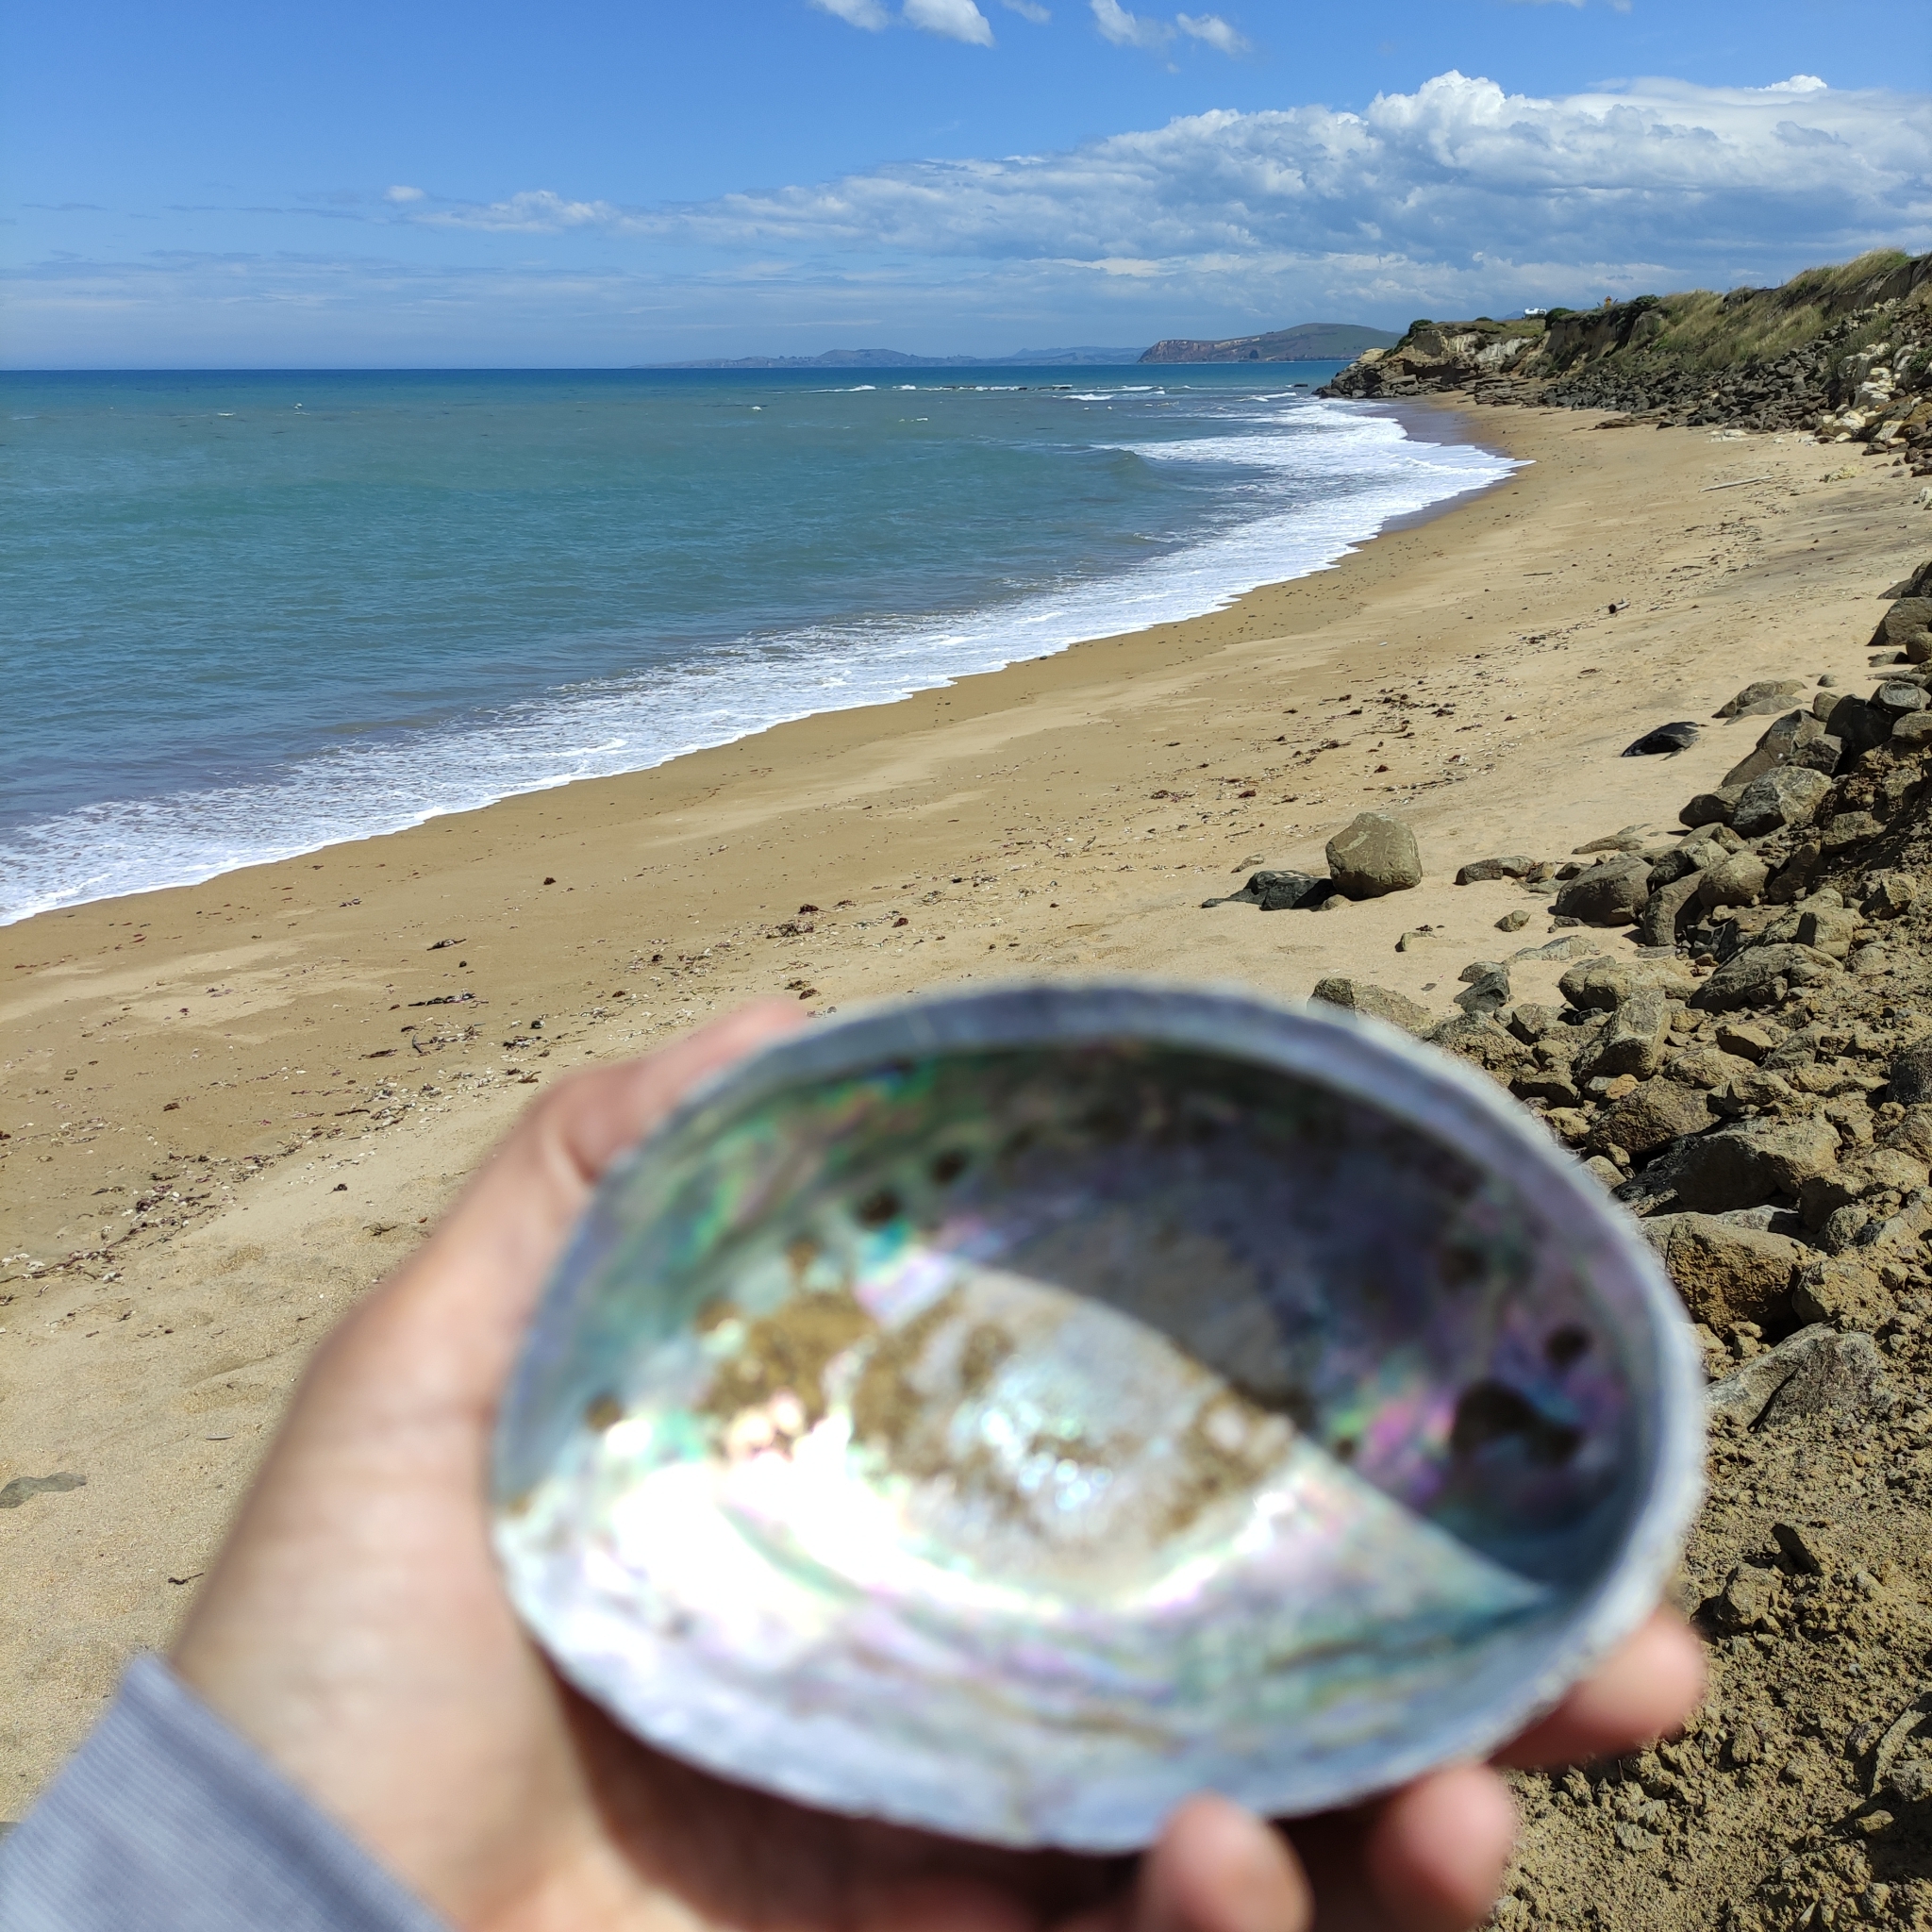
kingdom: Animalia
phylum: Mollusca
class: Gastropoda
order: Lepetellida
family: Haliotidae
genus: Haliotis
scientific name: Haliotis iris
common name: Abalone
